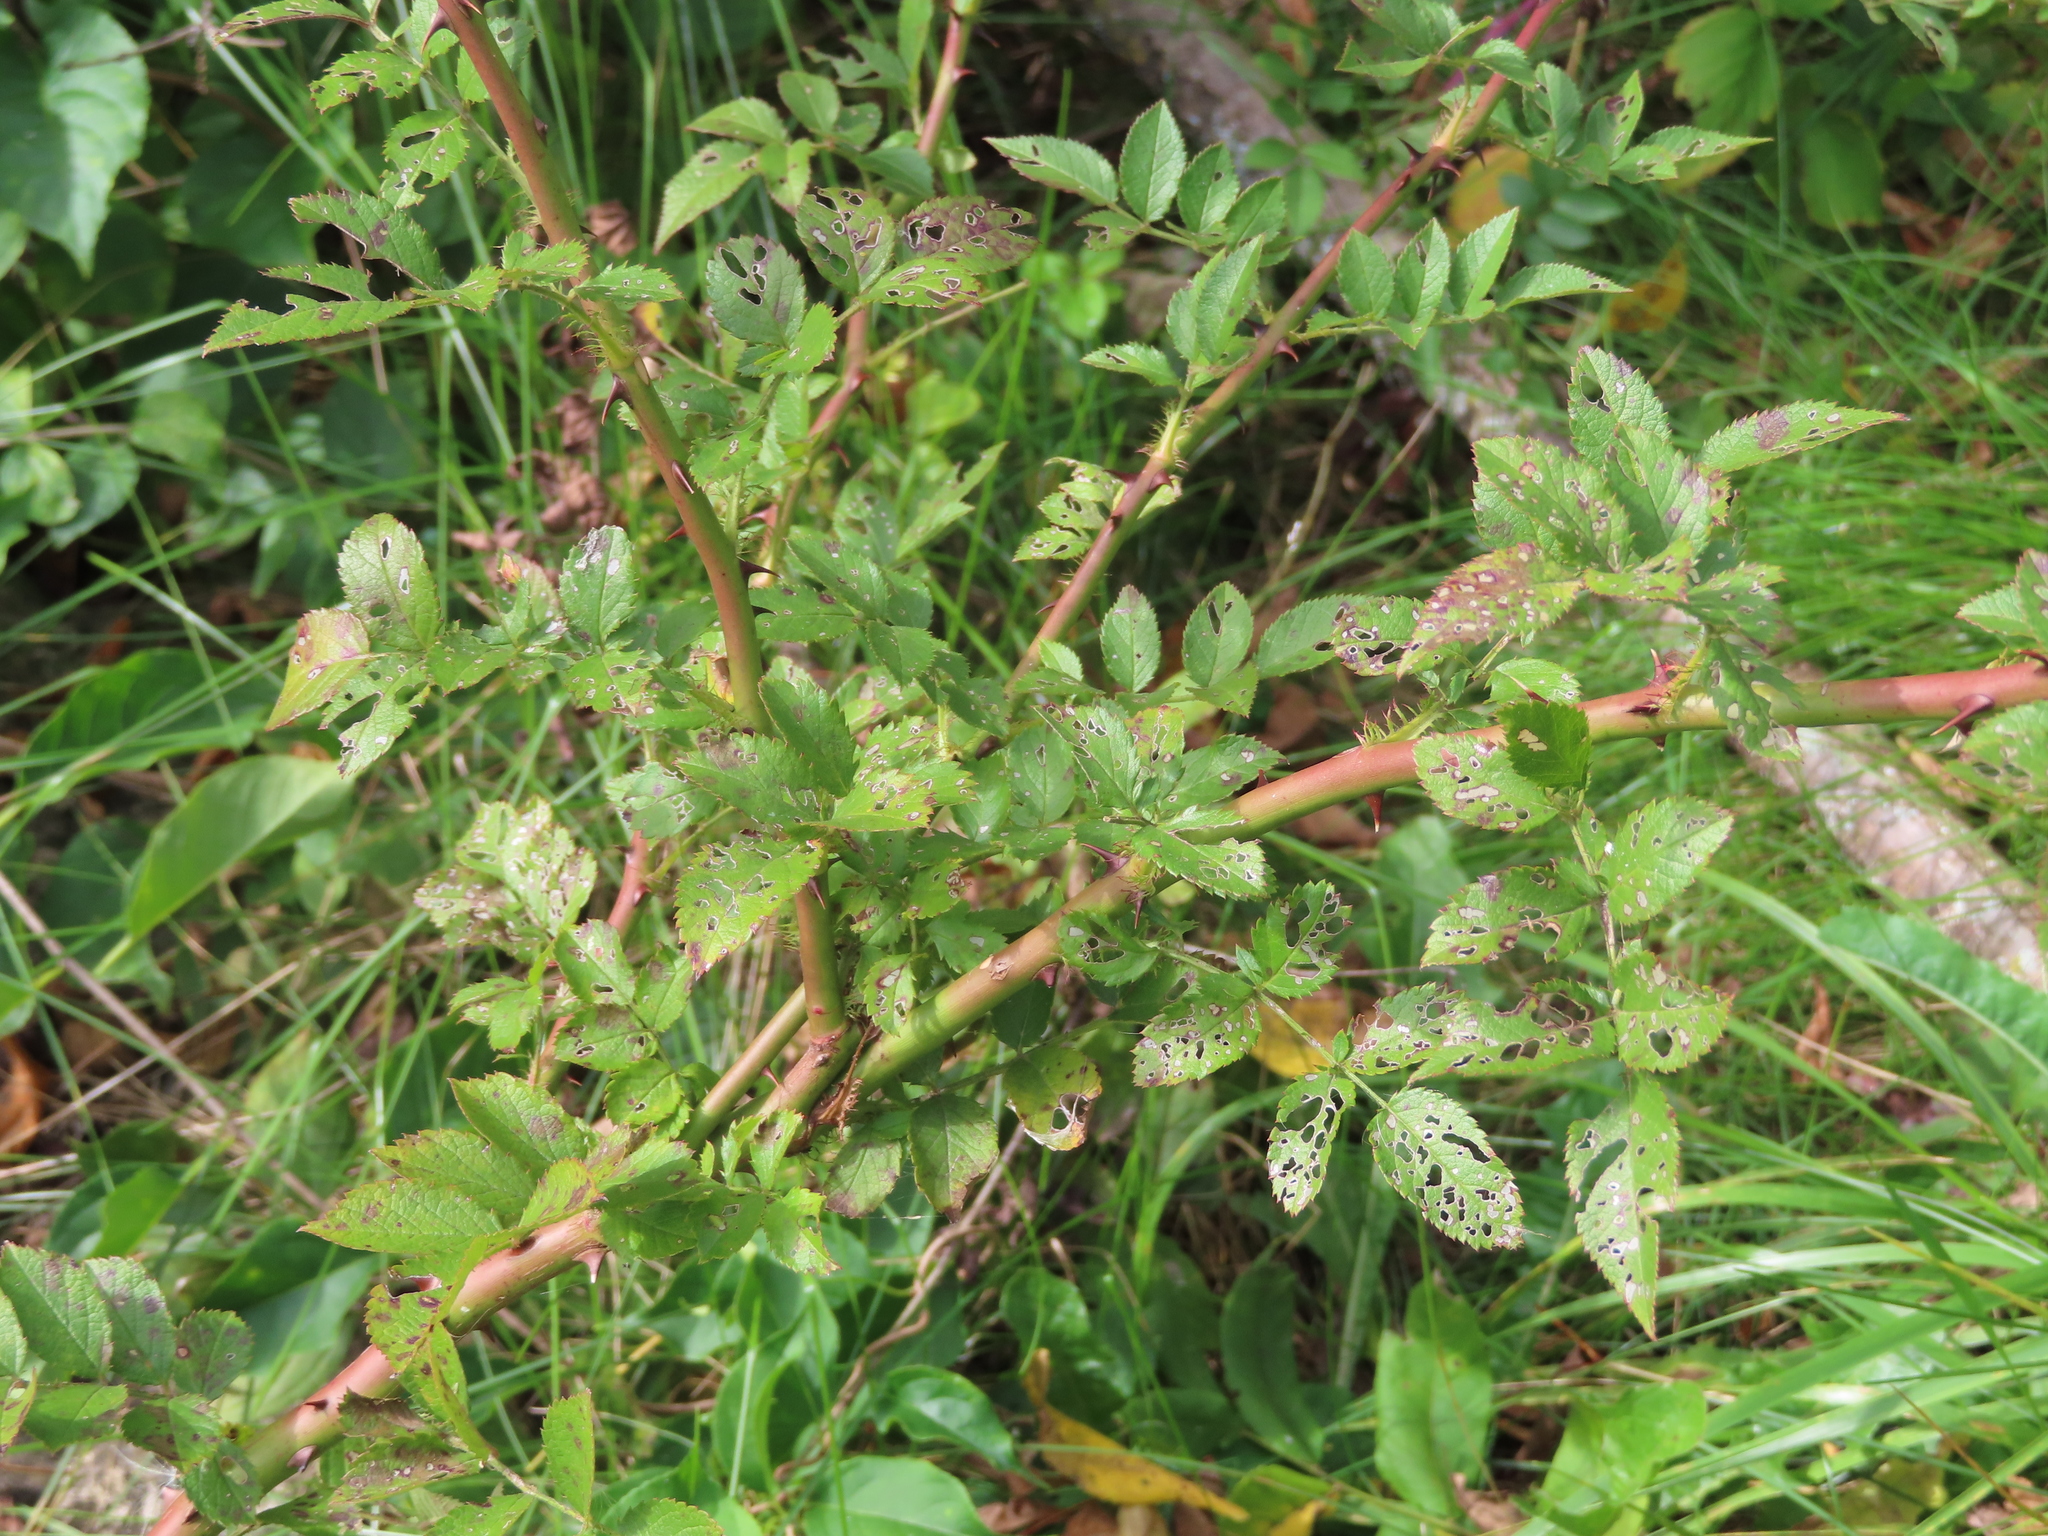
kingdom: Plantae
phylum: Tracheophyta
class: Magnoliopsida
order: Rosales
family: Rosaceae
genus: Rosa
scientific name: Rosa multiflora
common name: Multiflora rose
